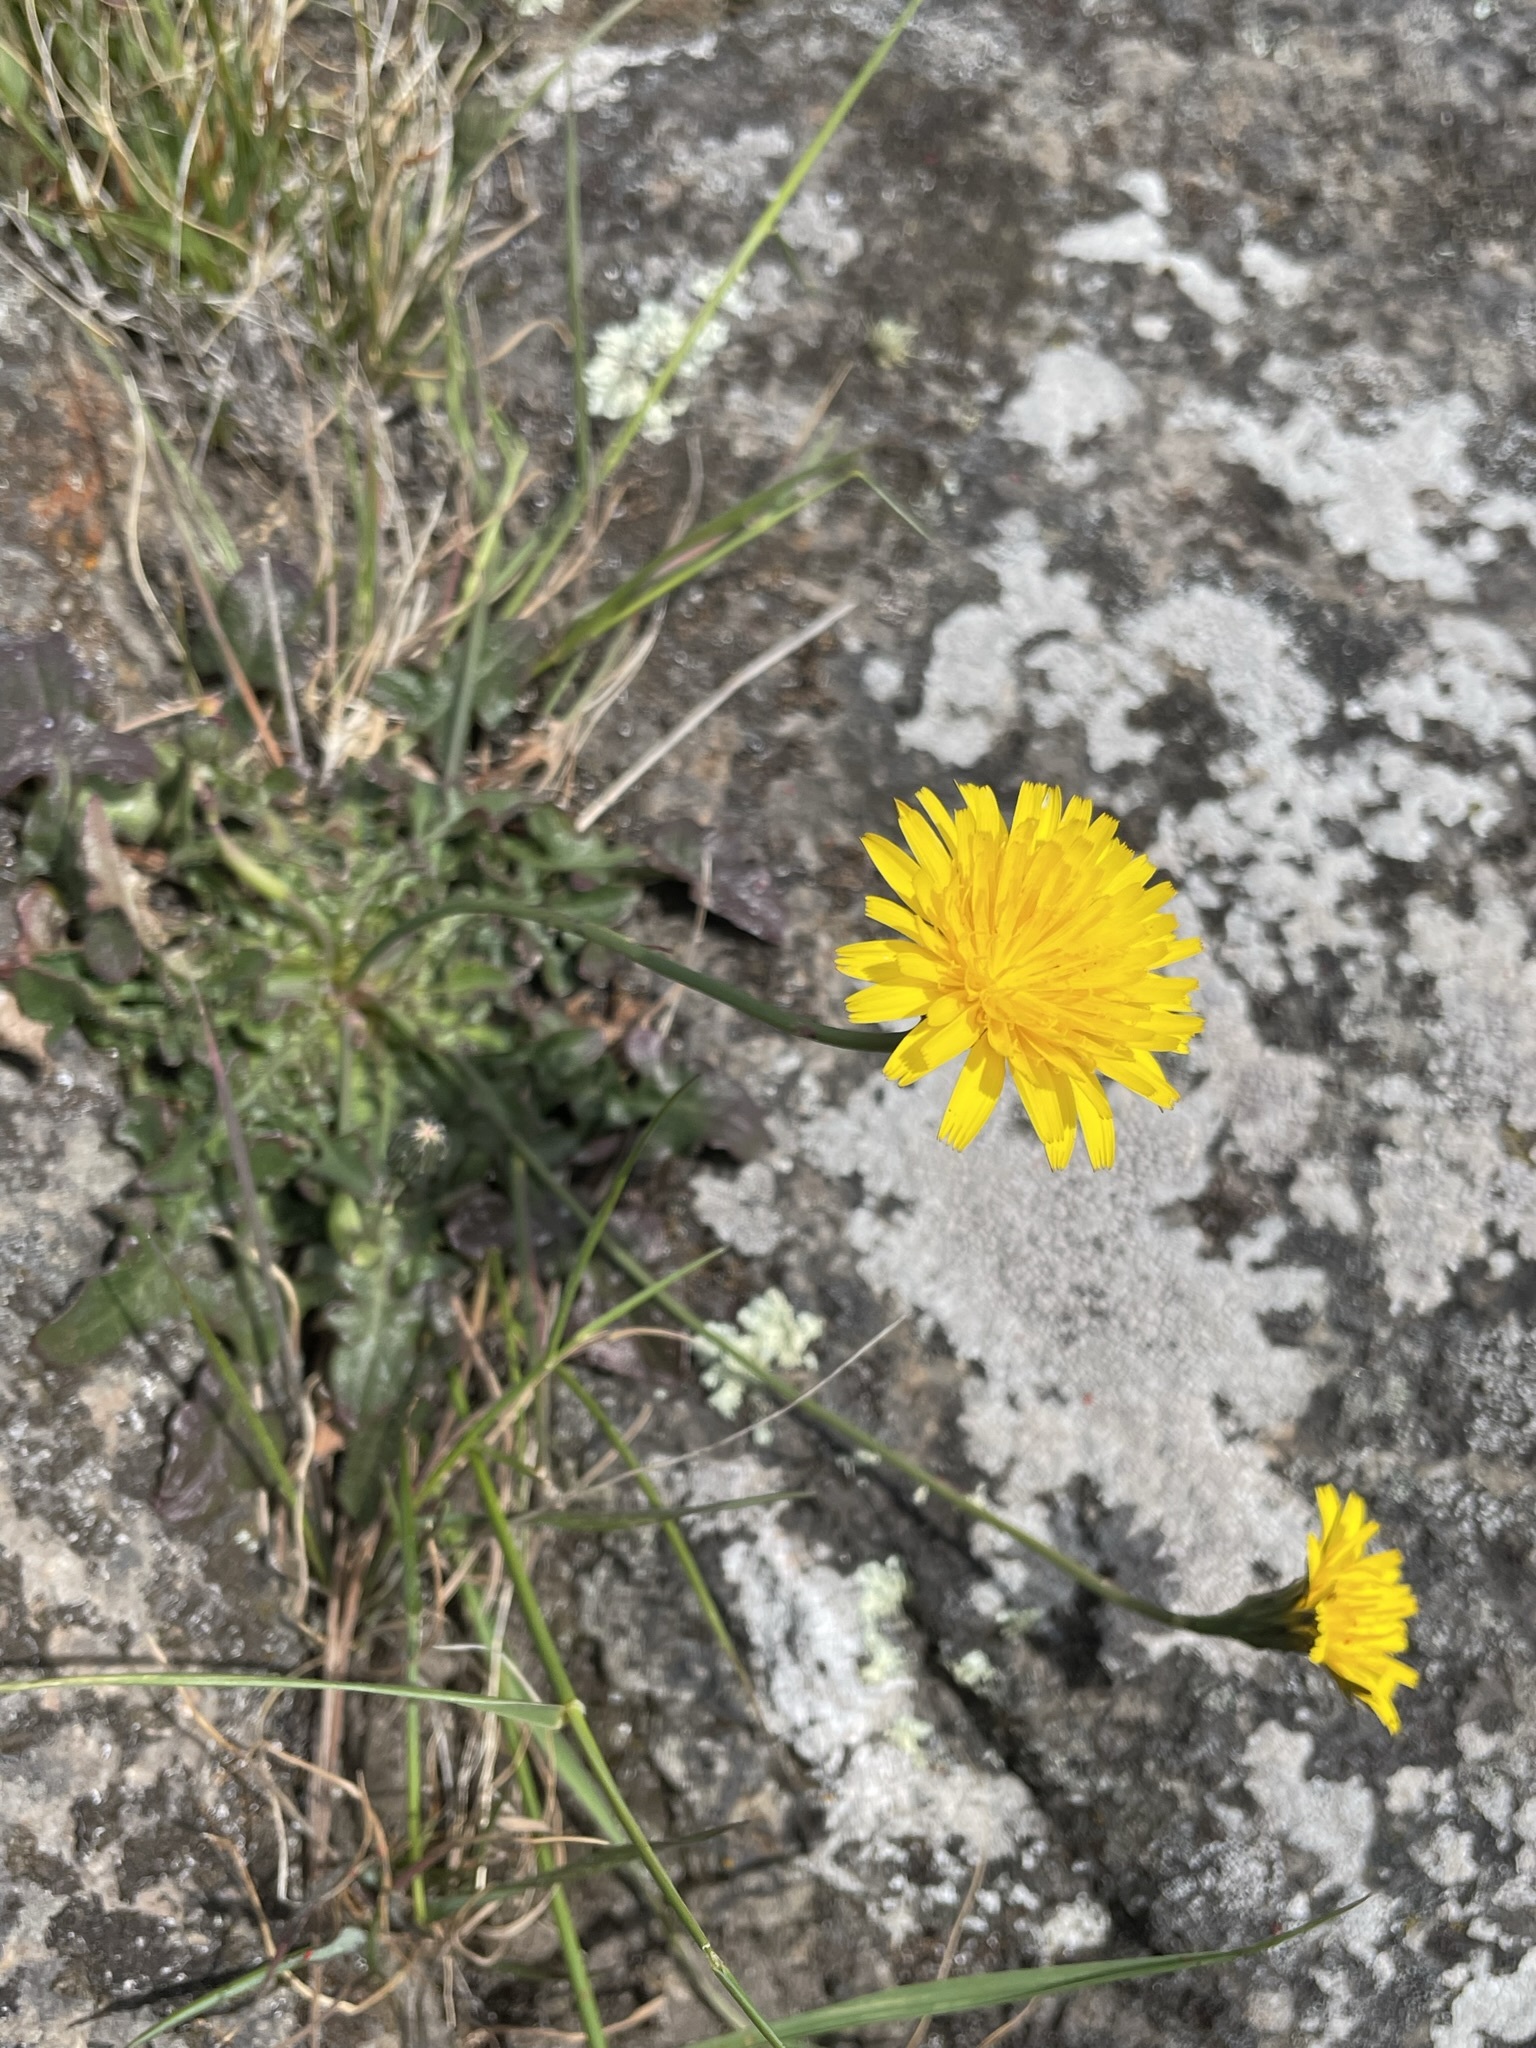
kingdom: Plantae
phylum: Tracheophyta
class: Magnoliopsida
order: Asterales
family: Asteraceae
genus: Hypochaeris
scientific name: Hypochaeris radicata
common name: Flatweed
